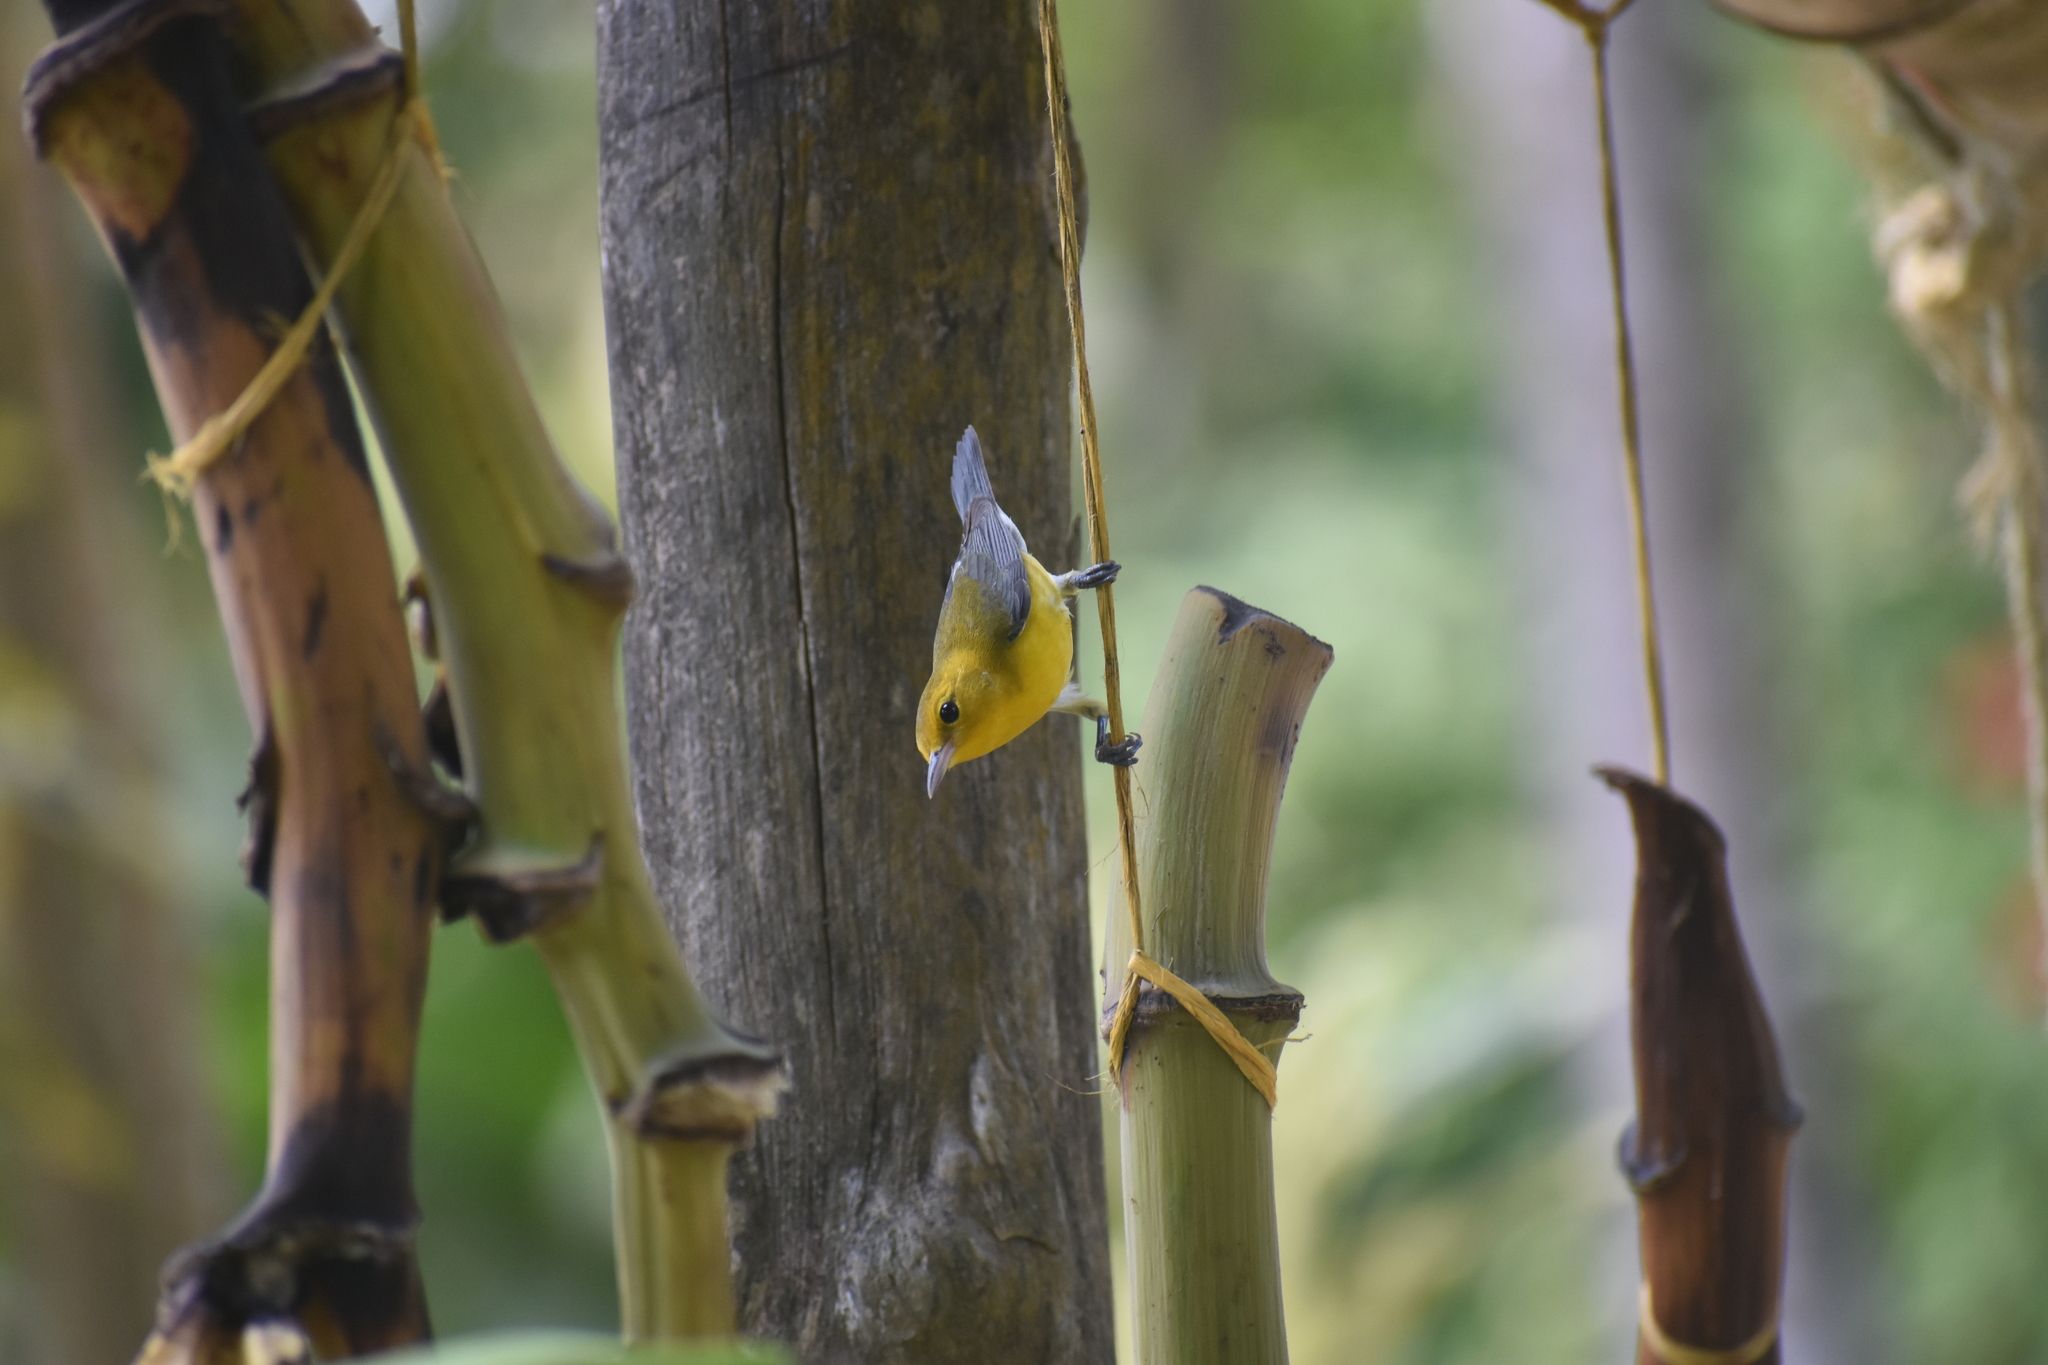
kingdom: Animalia
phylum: Chordata
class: Aves
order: Passeriformes
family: Parulidae
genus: Protonotaria
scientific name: Protonotaria citrea
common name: Prothonotary warbler
